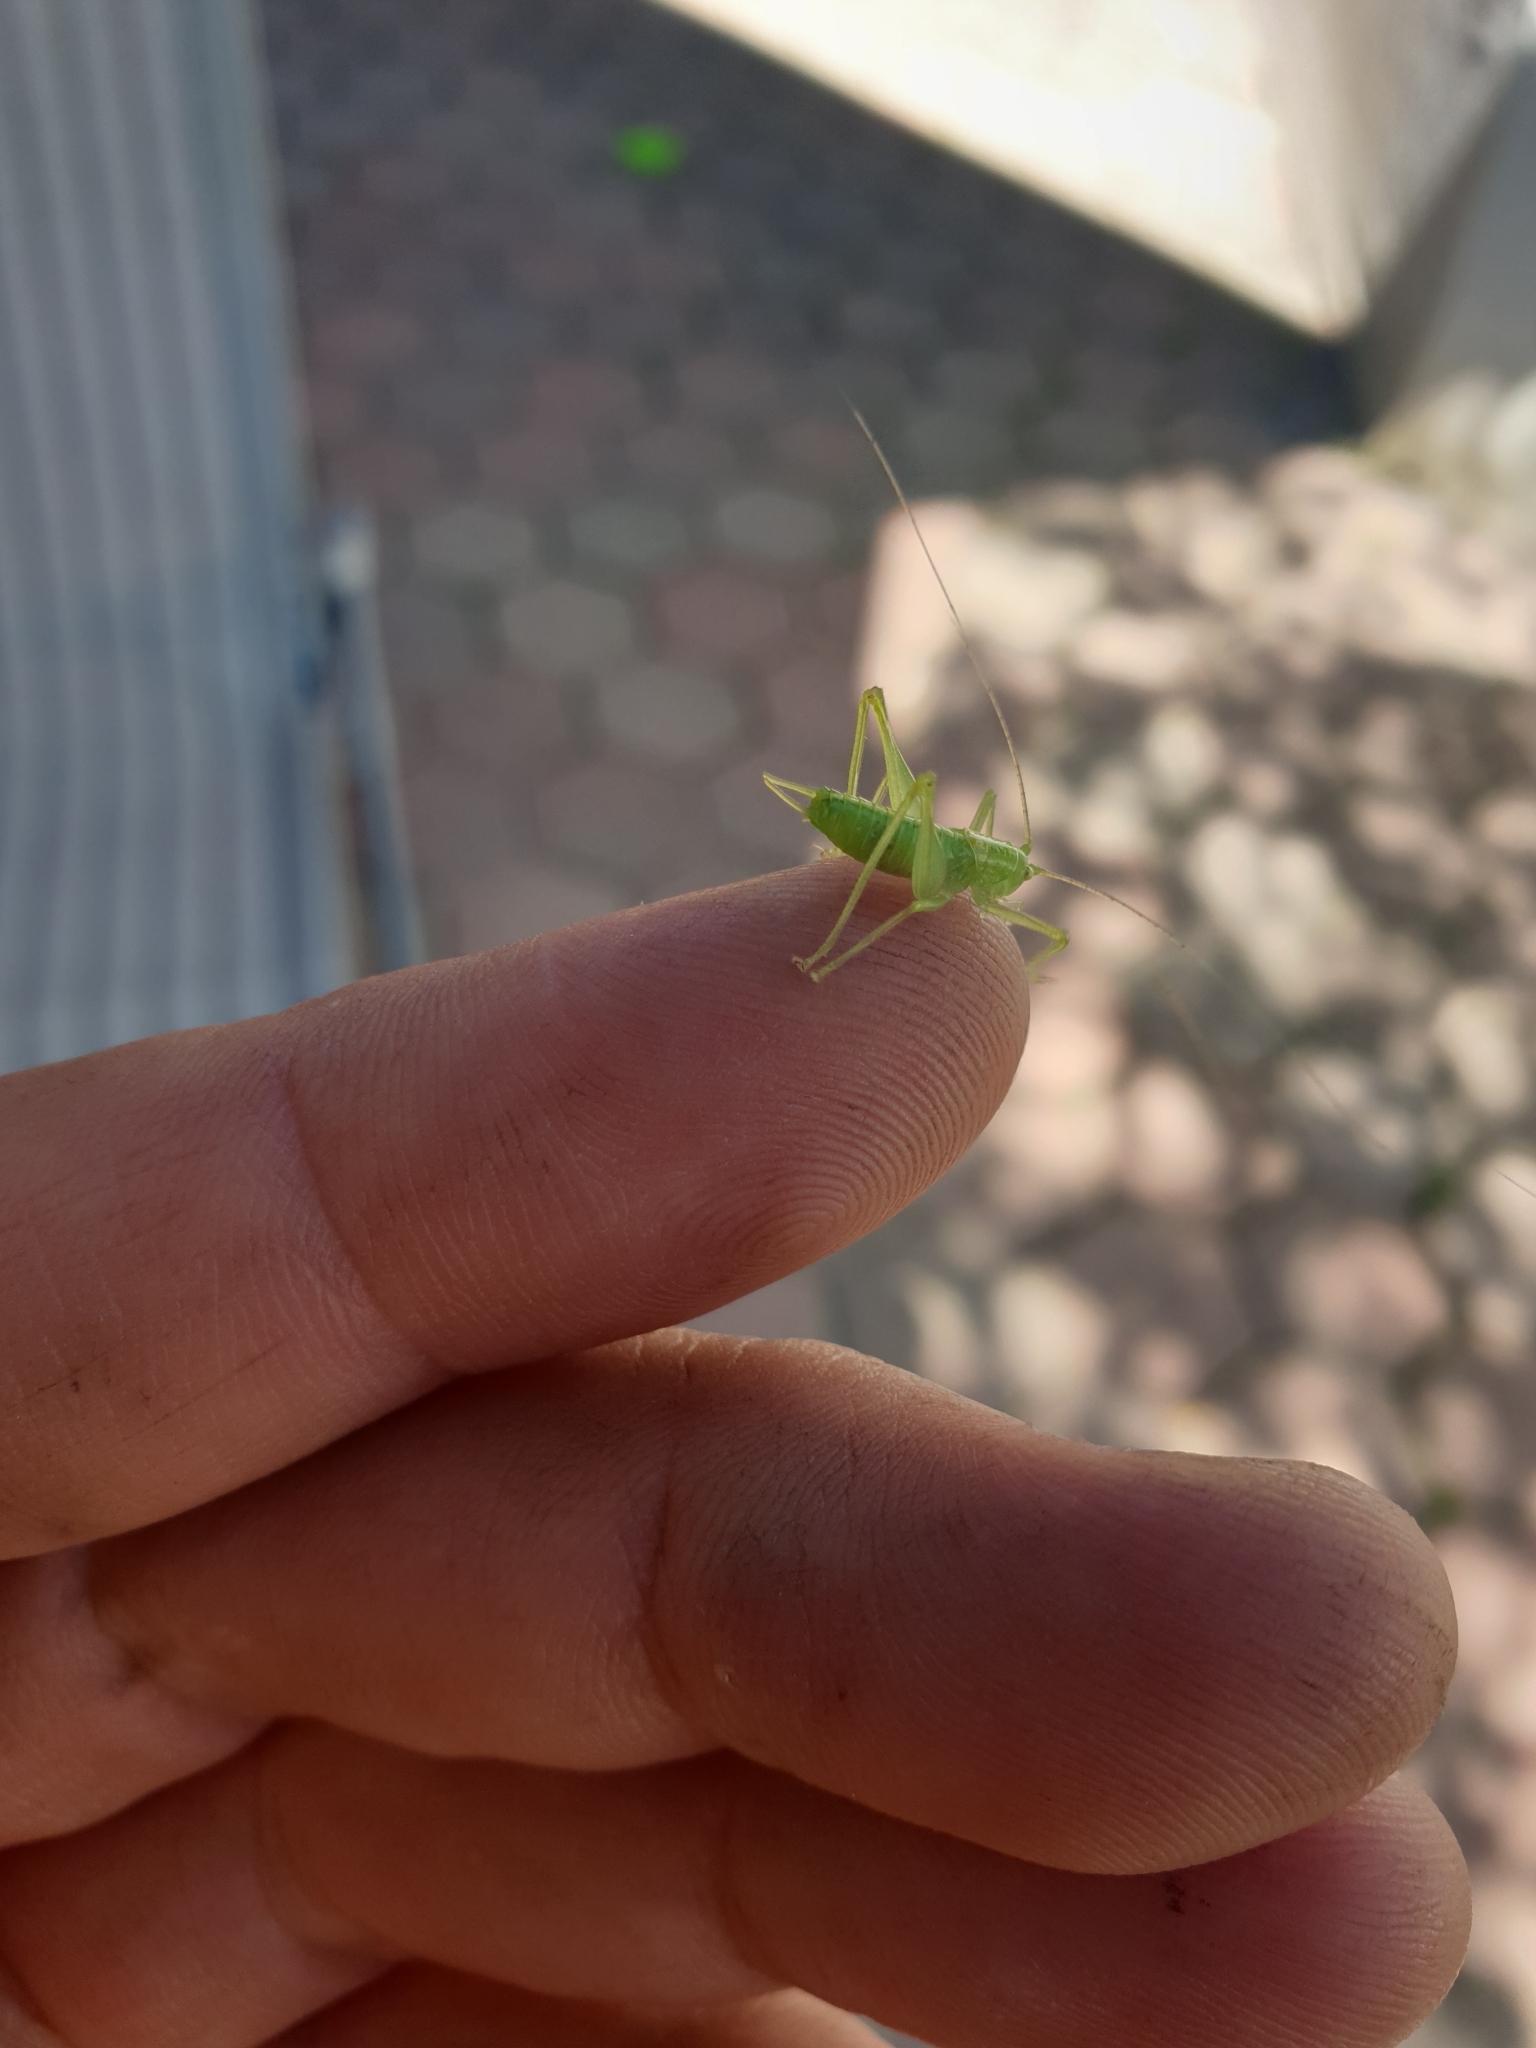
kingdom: Animalia
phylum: Arthropoda
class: Insecta
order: Orthoptera
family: Tettigoniidae
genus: Meconema
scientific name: Meconema meridionale
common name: Southern oak bush-cricket
